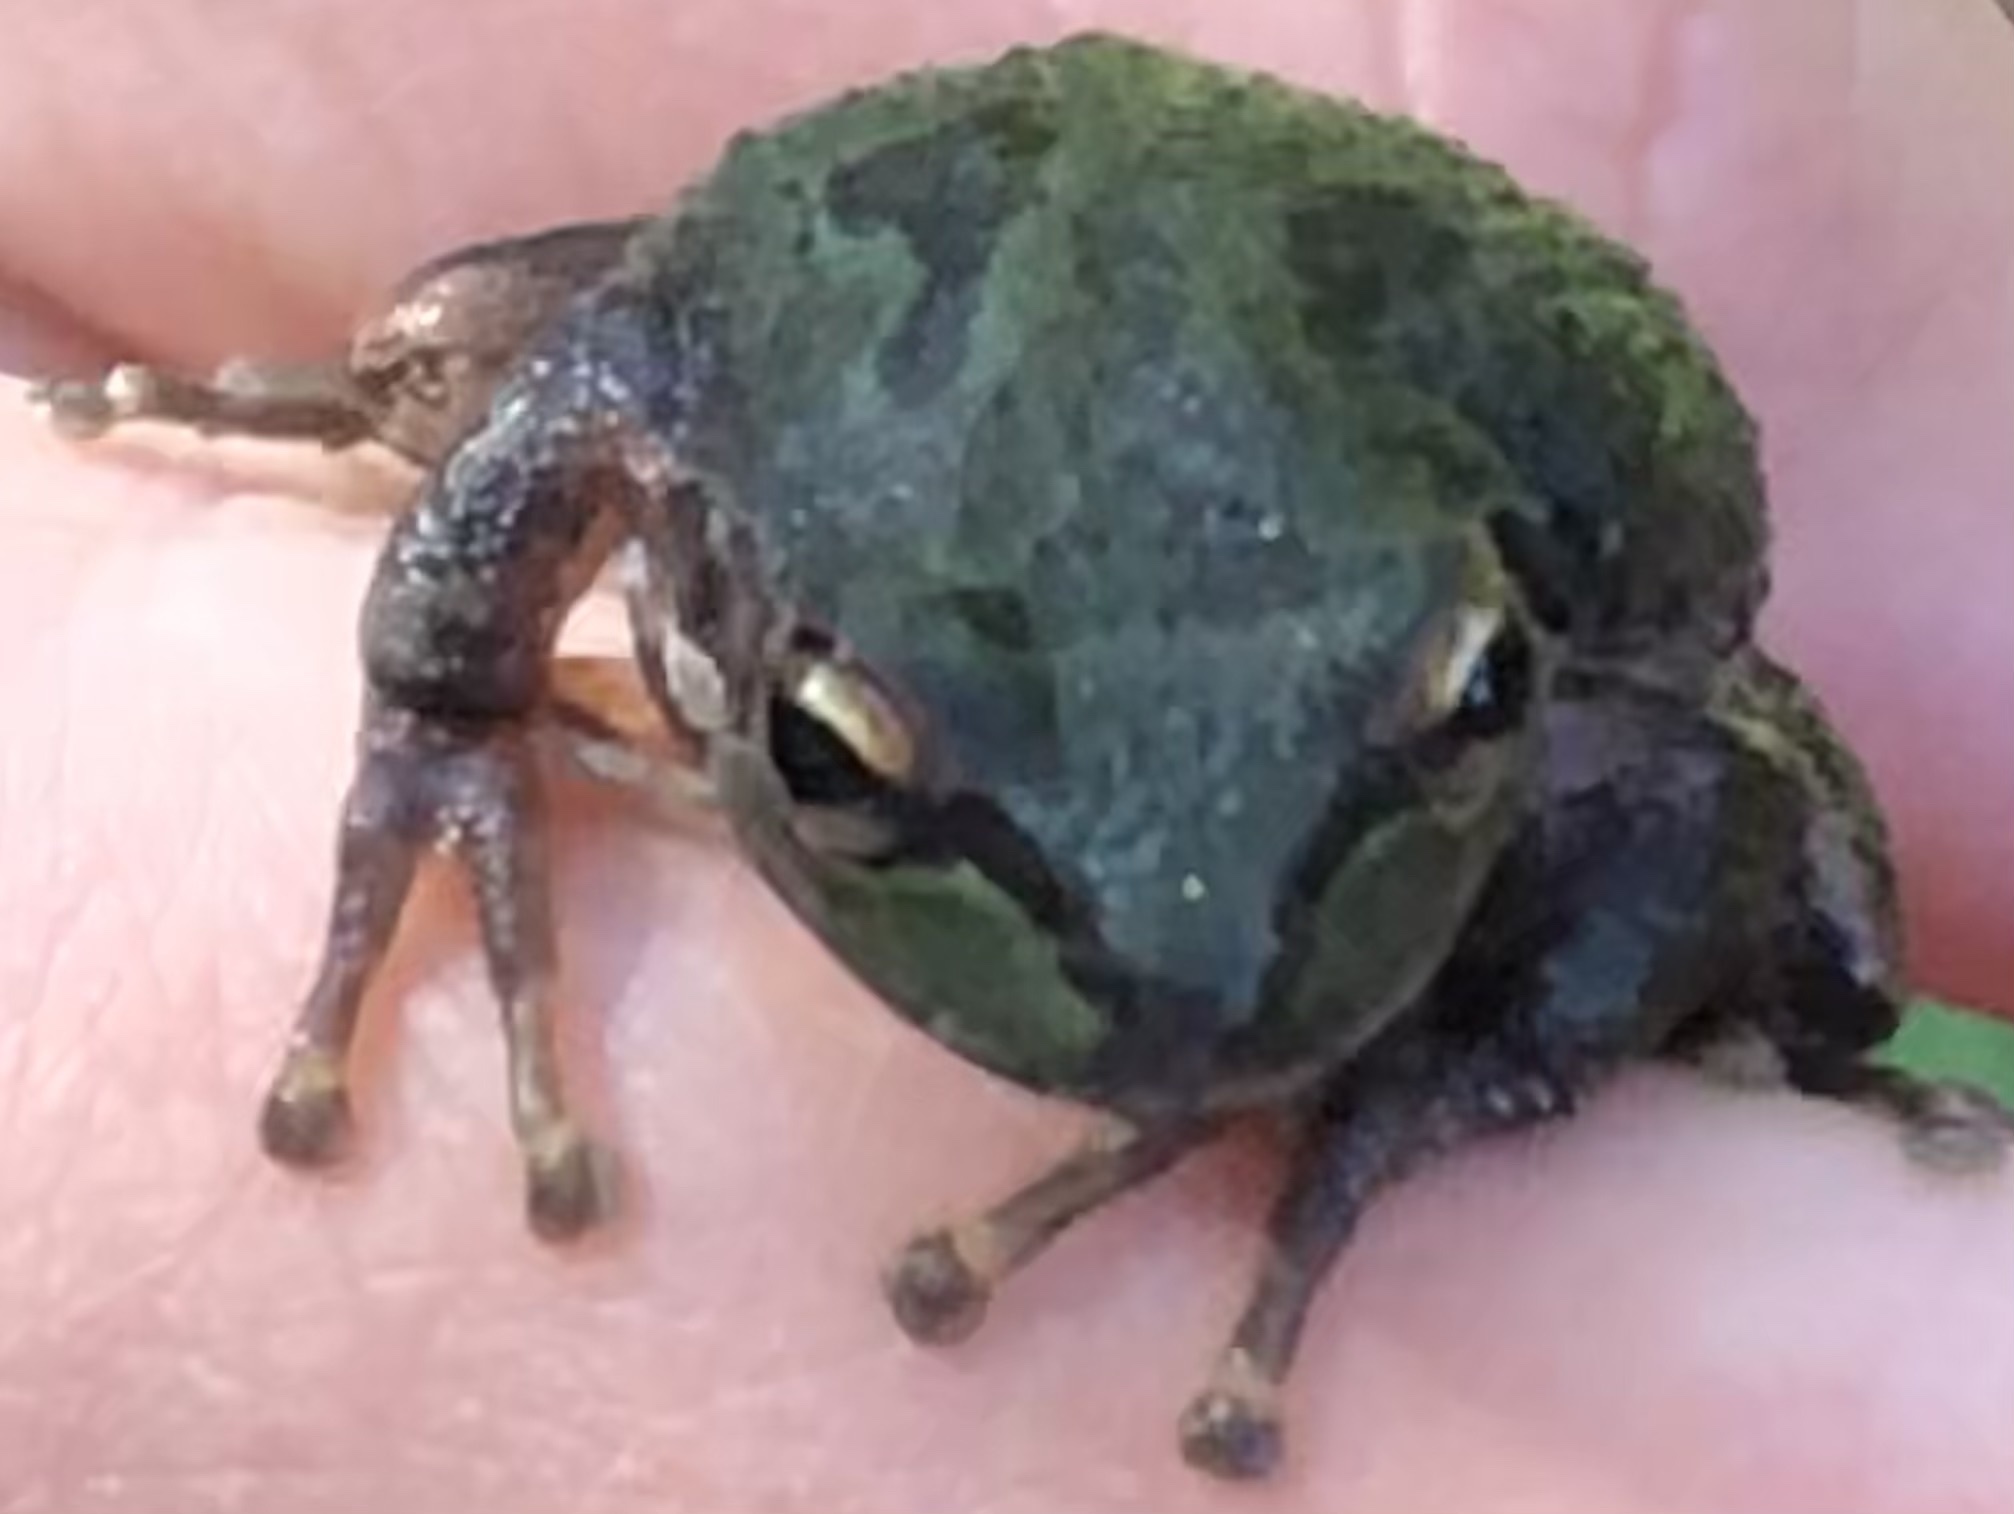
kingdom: Animalia
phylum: Chordata
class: Amphibia
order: Anura
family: Hylidae
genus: Pseudacris
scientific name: Pseudacris regilla
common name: Pacific chorus frog
